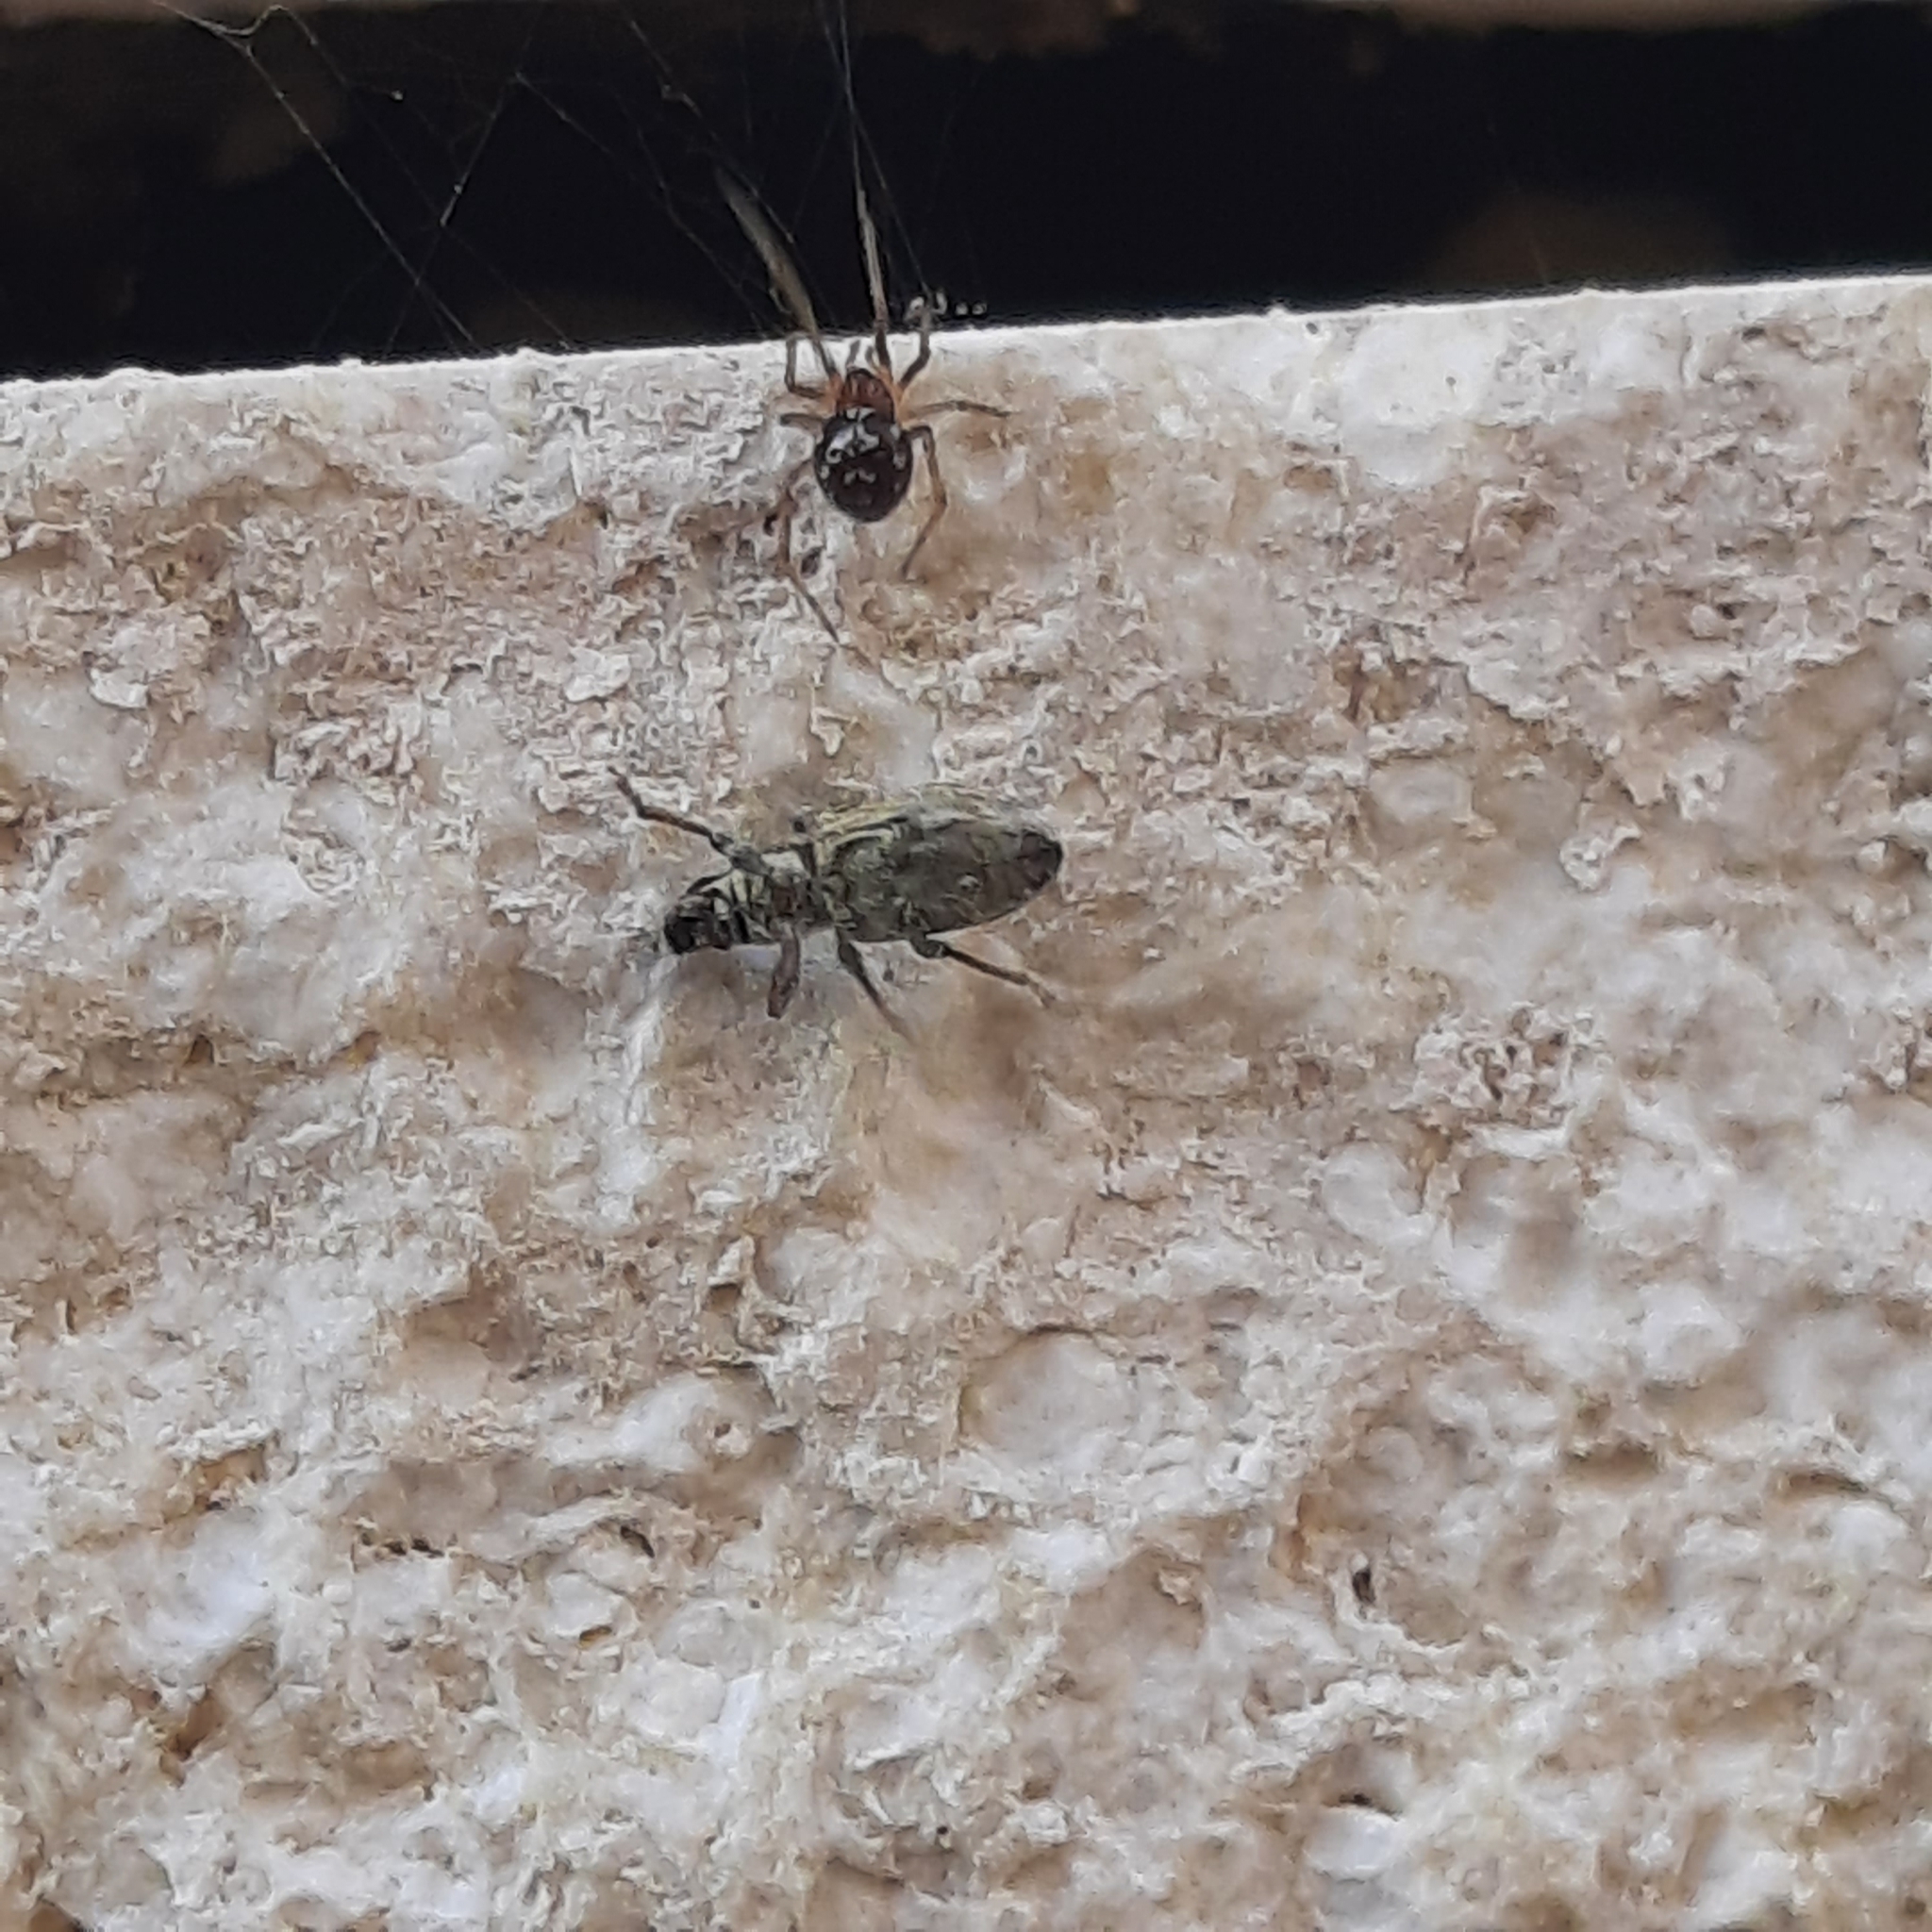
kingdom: Animalia
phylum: Arthropoda
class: Arachnida
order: Araneae
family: Theridiidae
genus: Steatoda
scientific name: Steatoda triangulosa
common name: Triangulate bud spider
